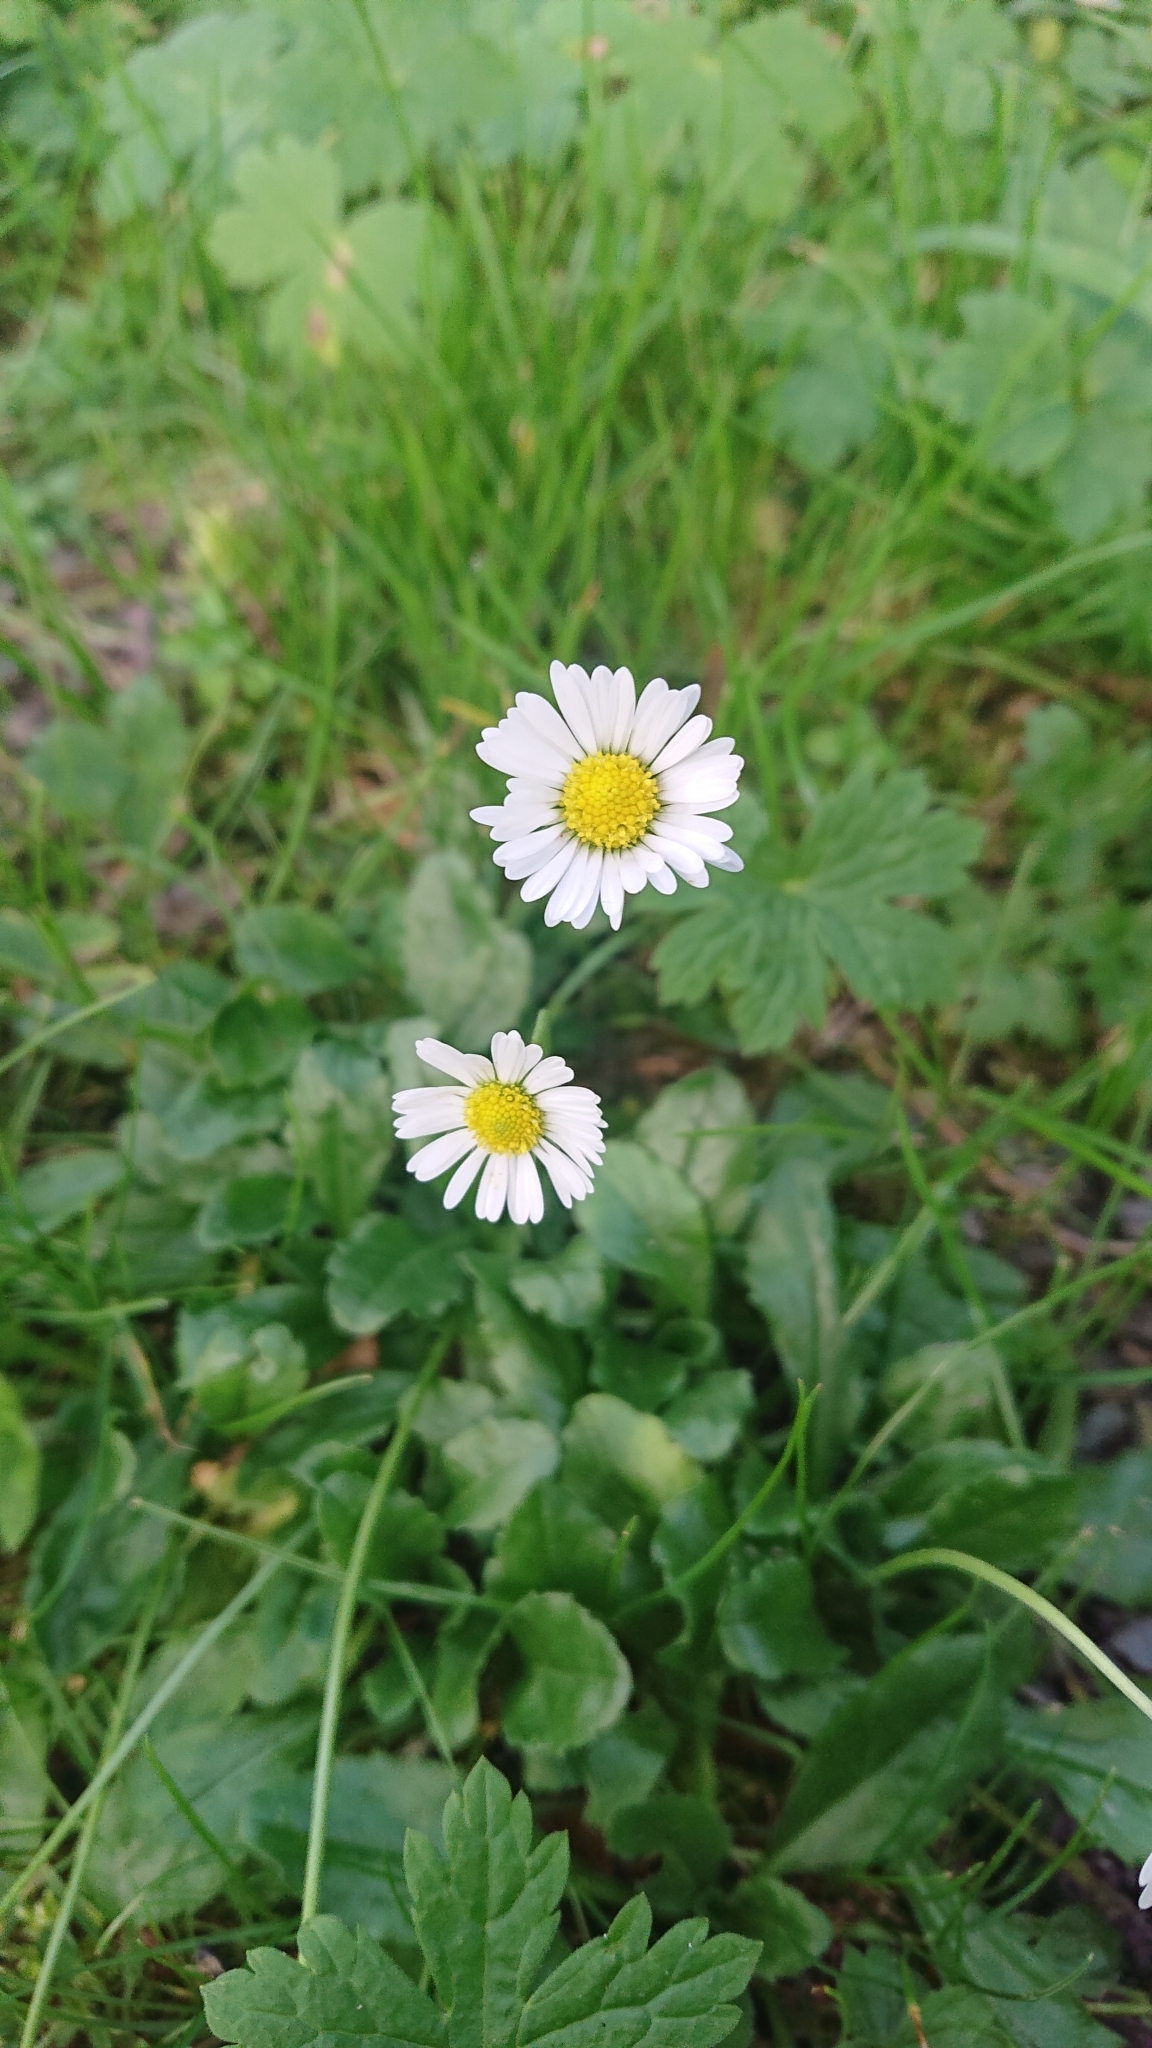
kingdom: Plantae
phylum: Tracheophyta
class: Magnoliopsida
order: Asterales
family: Asteraceae
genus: Bellis
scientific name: Bellis perennis
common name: Lawndaisy
